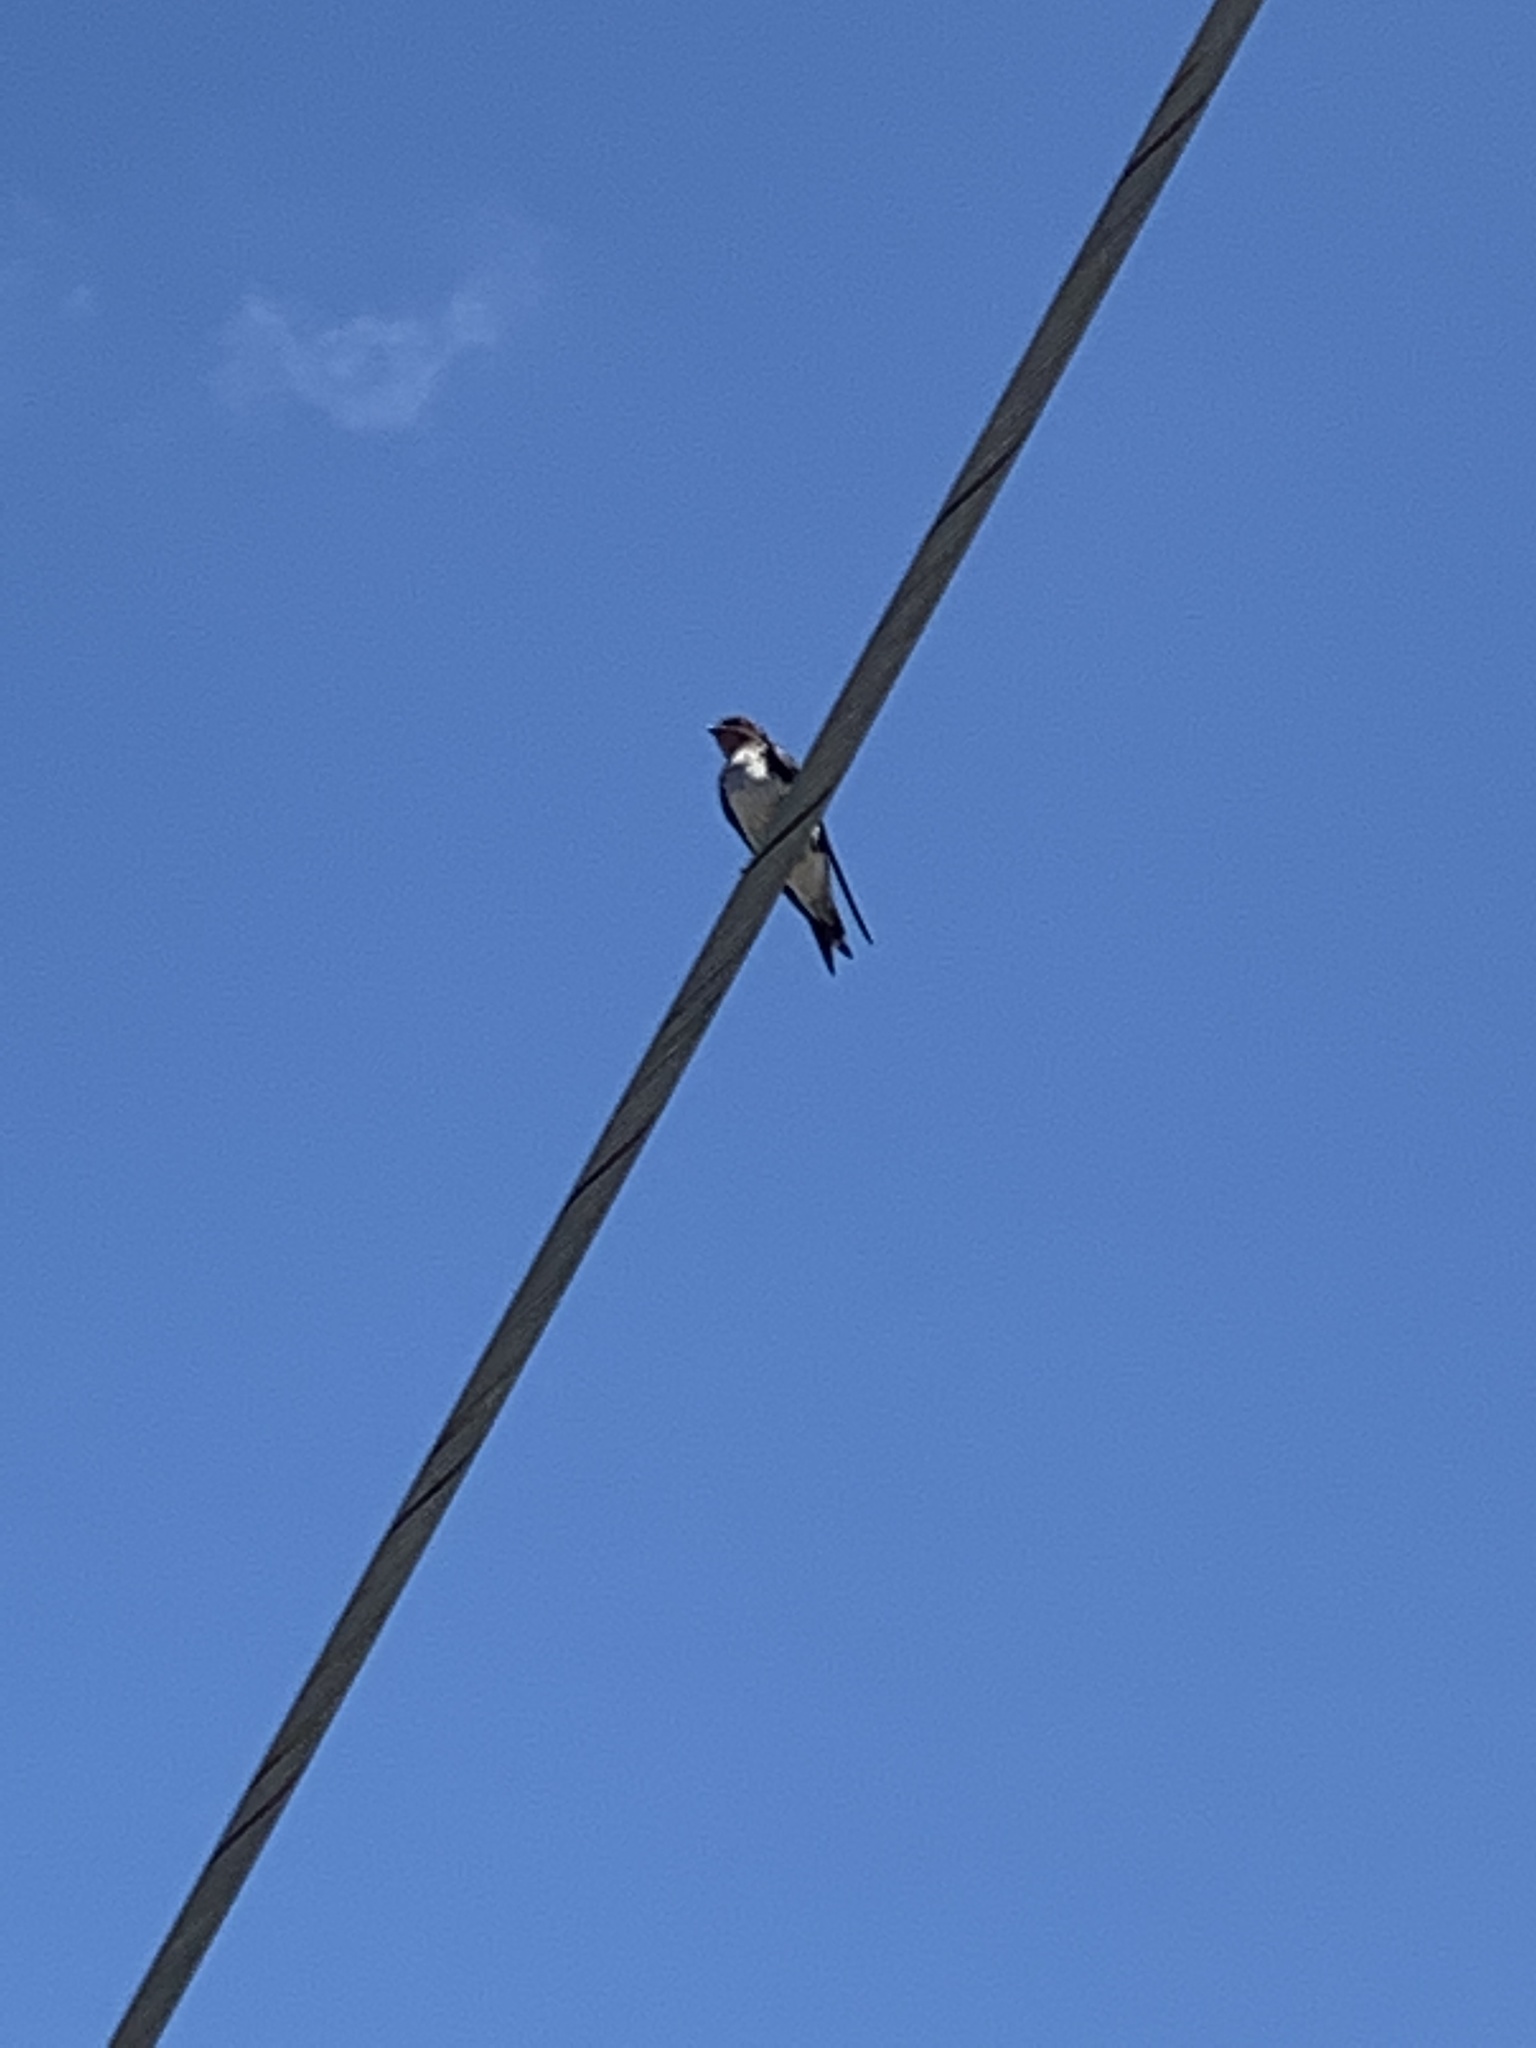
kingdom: Animalia
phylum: Chordata
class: Aves
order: Passeriformes
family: Hirundinidae
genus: Progne
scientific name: Progne chalybea
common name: Grey-breasted martin
